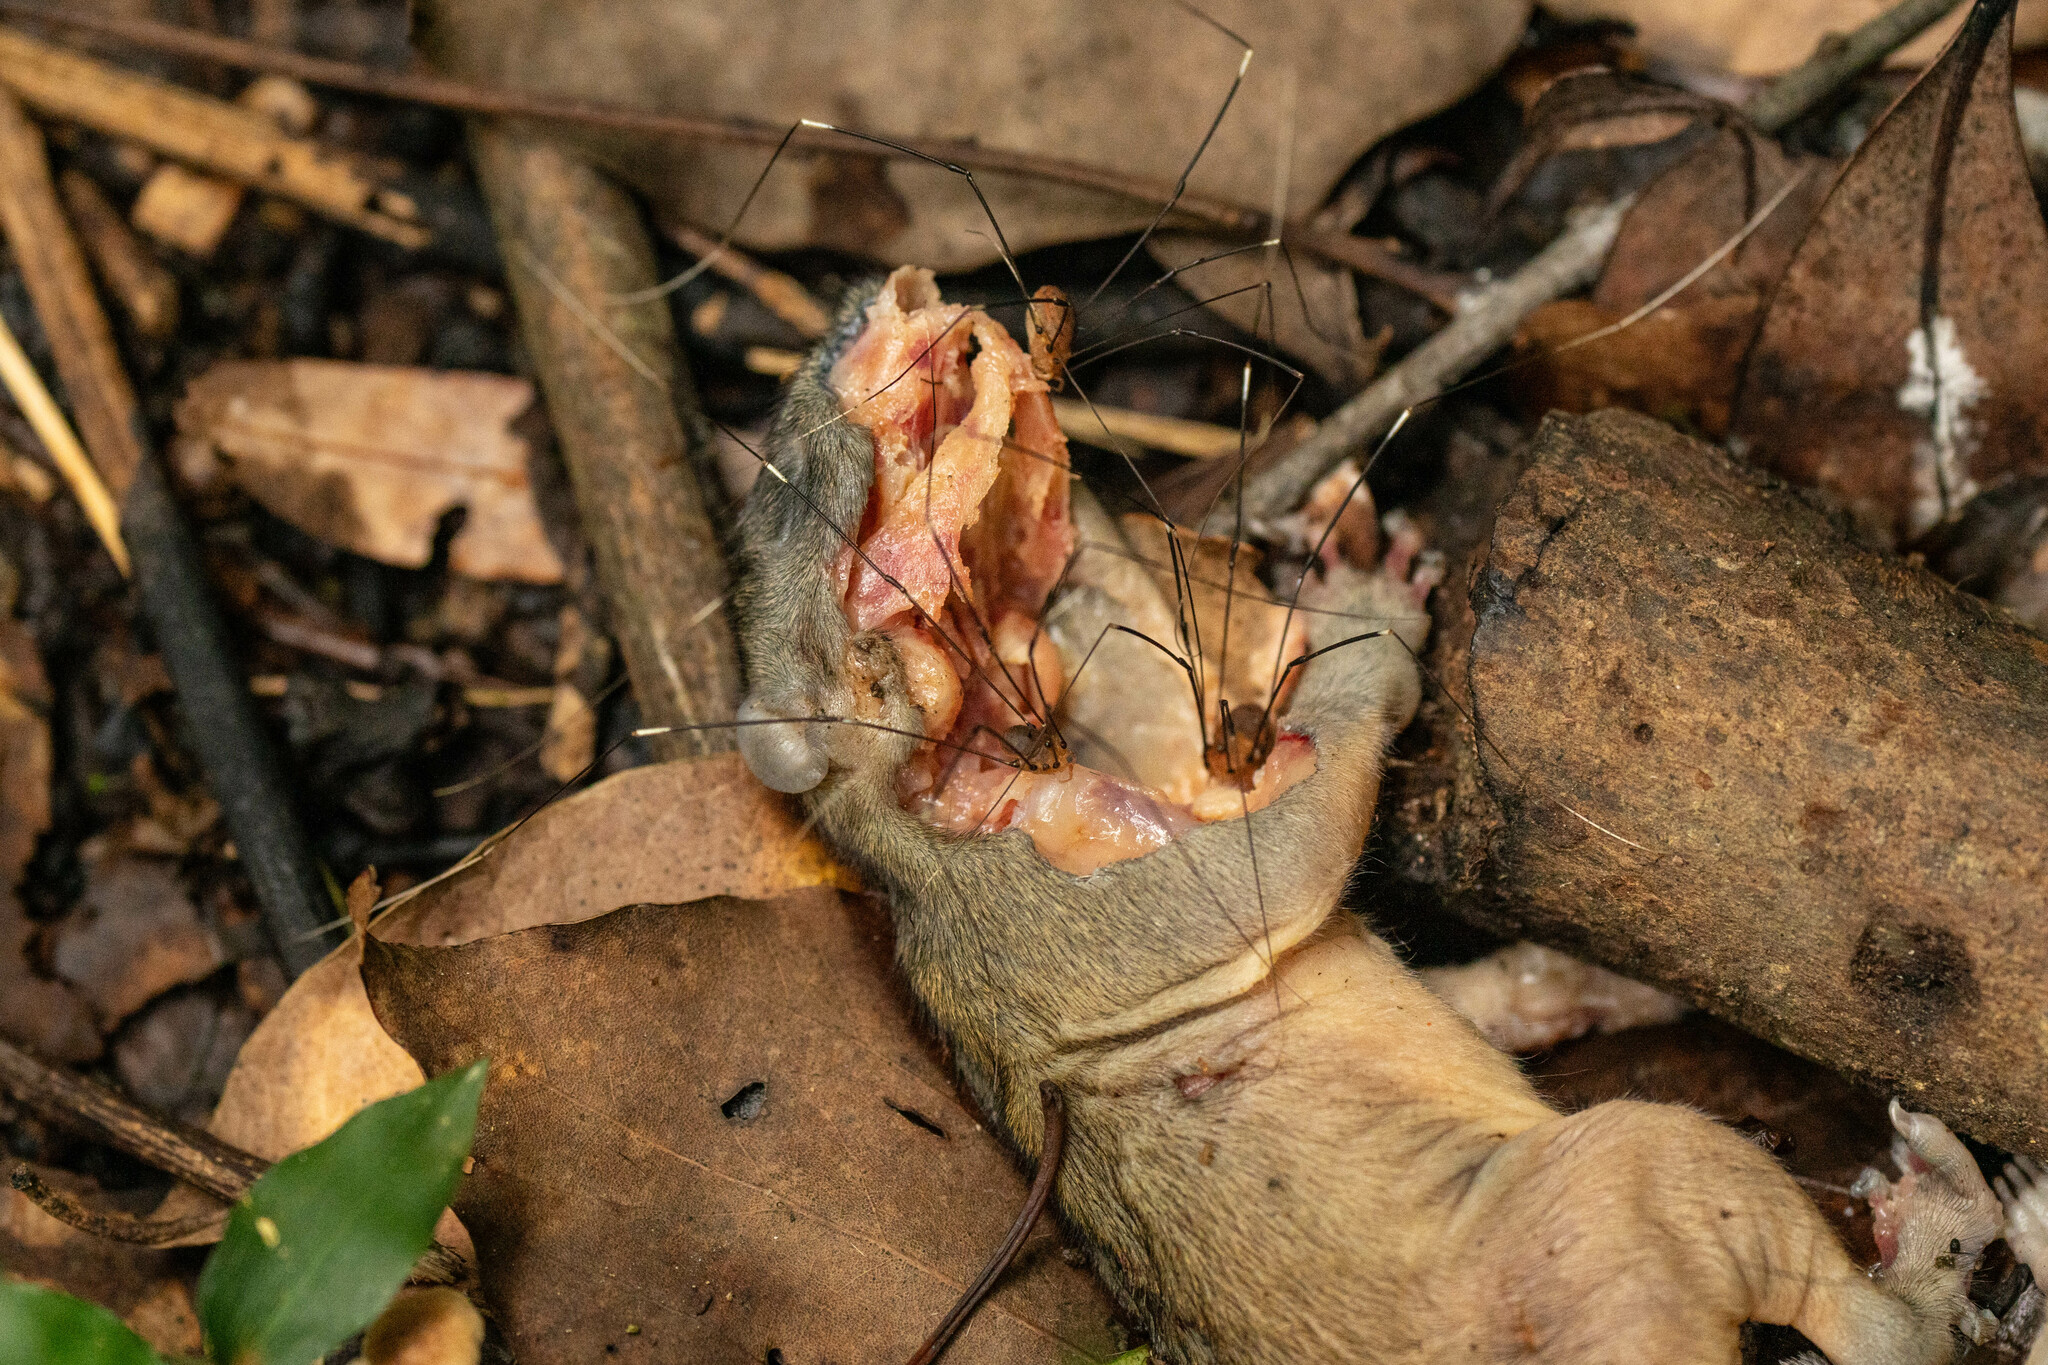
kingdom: Animalia
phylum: Arthropoda
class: Arachnida
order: Opiliones
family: Sclerosomatidae
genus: Pseudogagrella
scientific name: Pseudogagrella splendens
